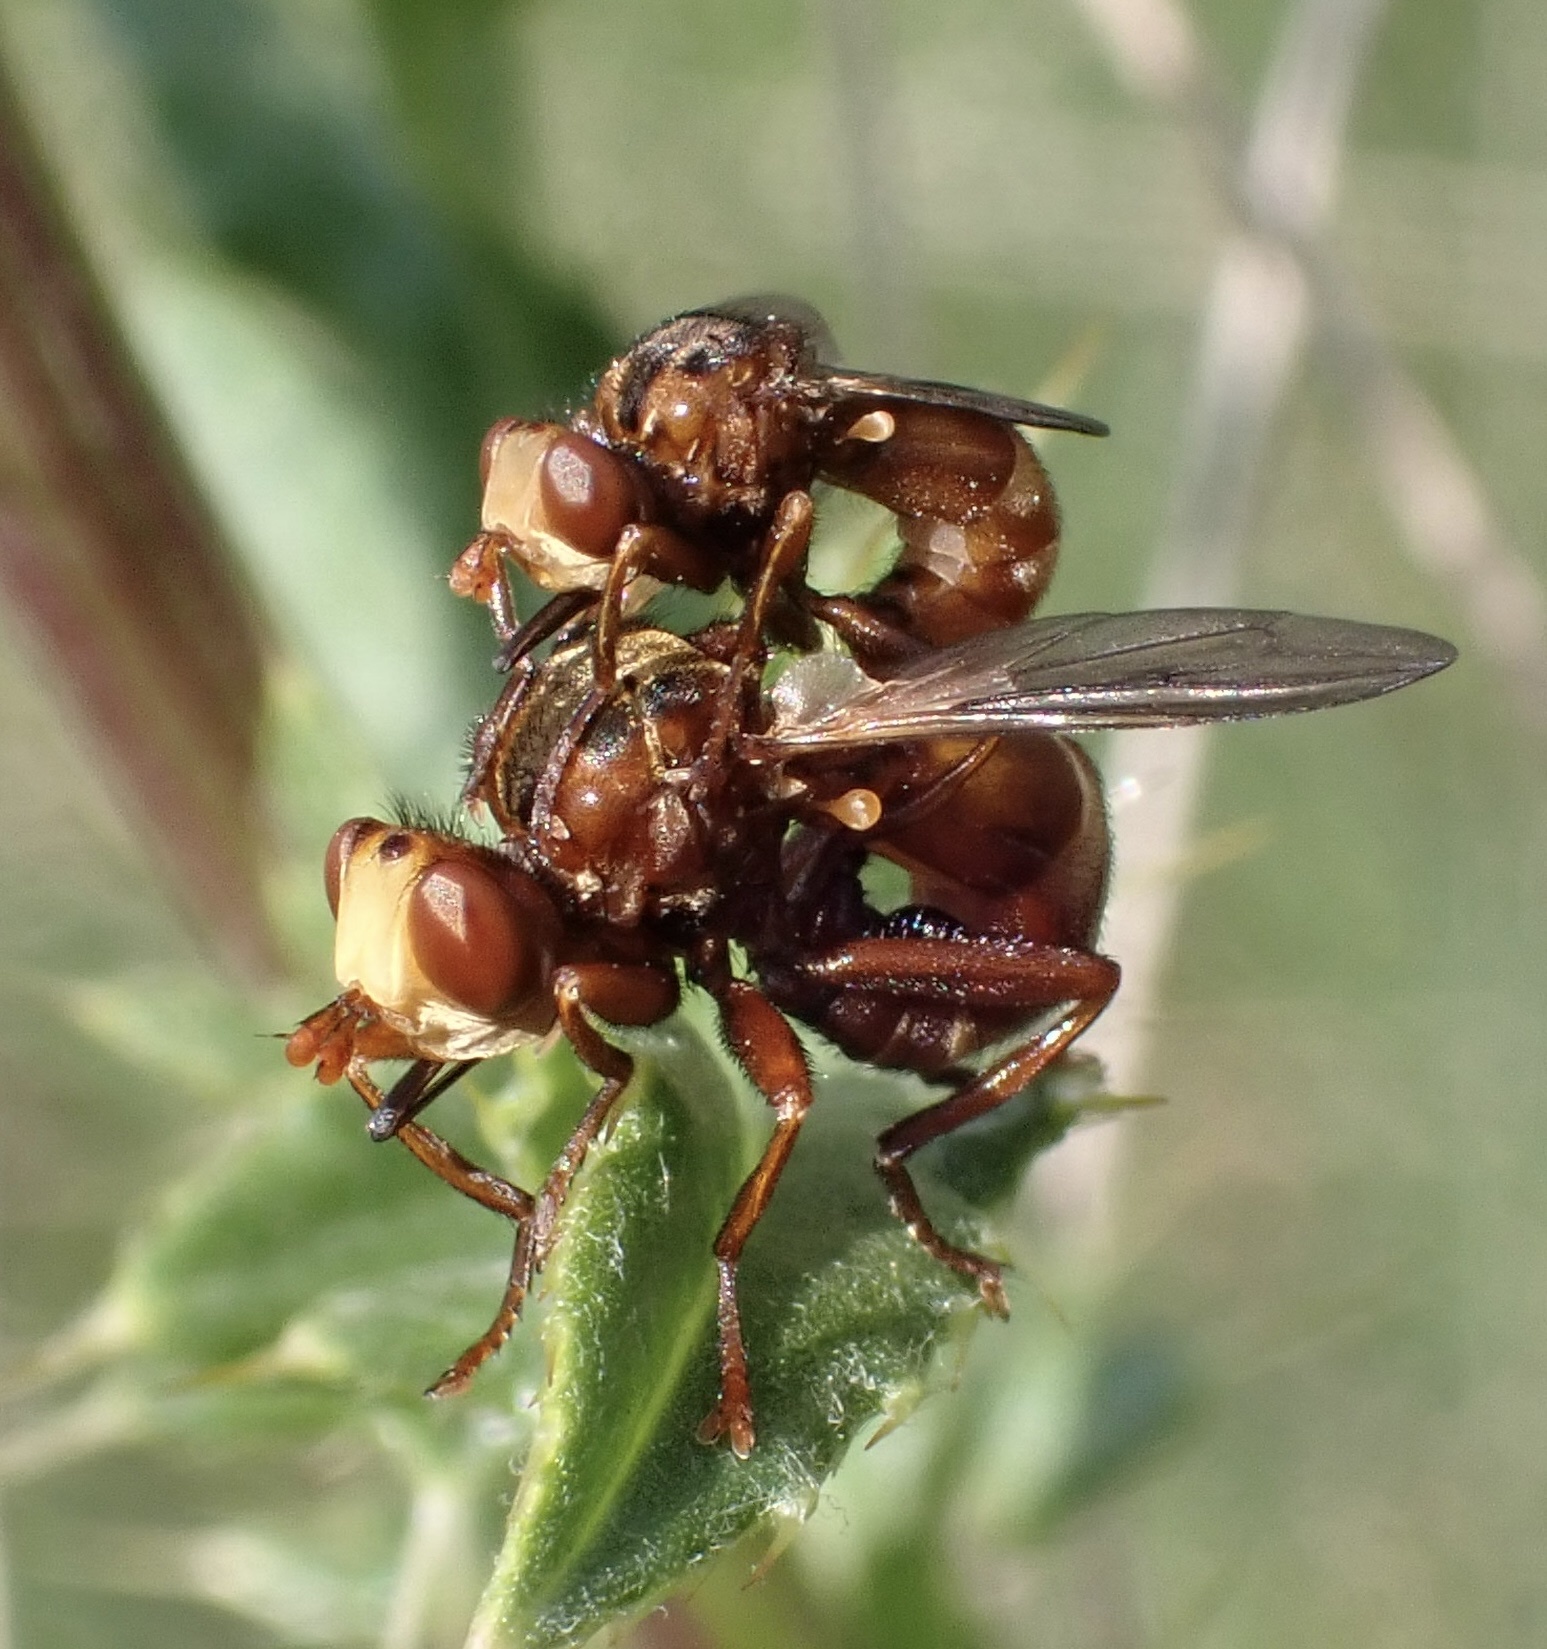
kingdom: Animalia
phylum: Arthropoda
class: Insecta
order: Diptera
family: Conopidae
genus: Sicus
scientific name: Sicus ferrugineus
